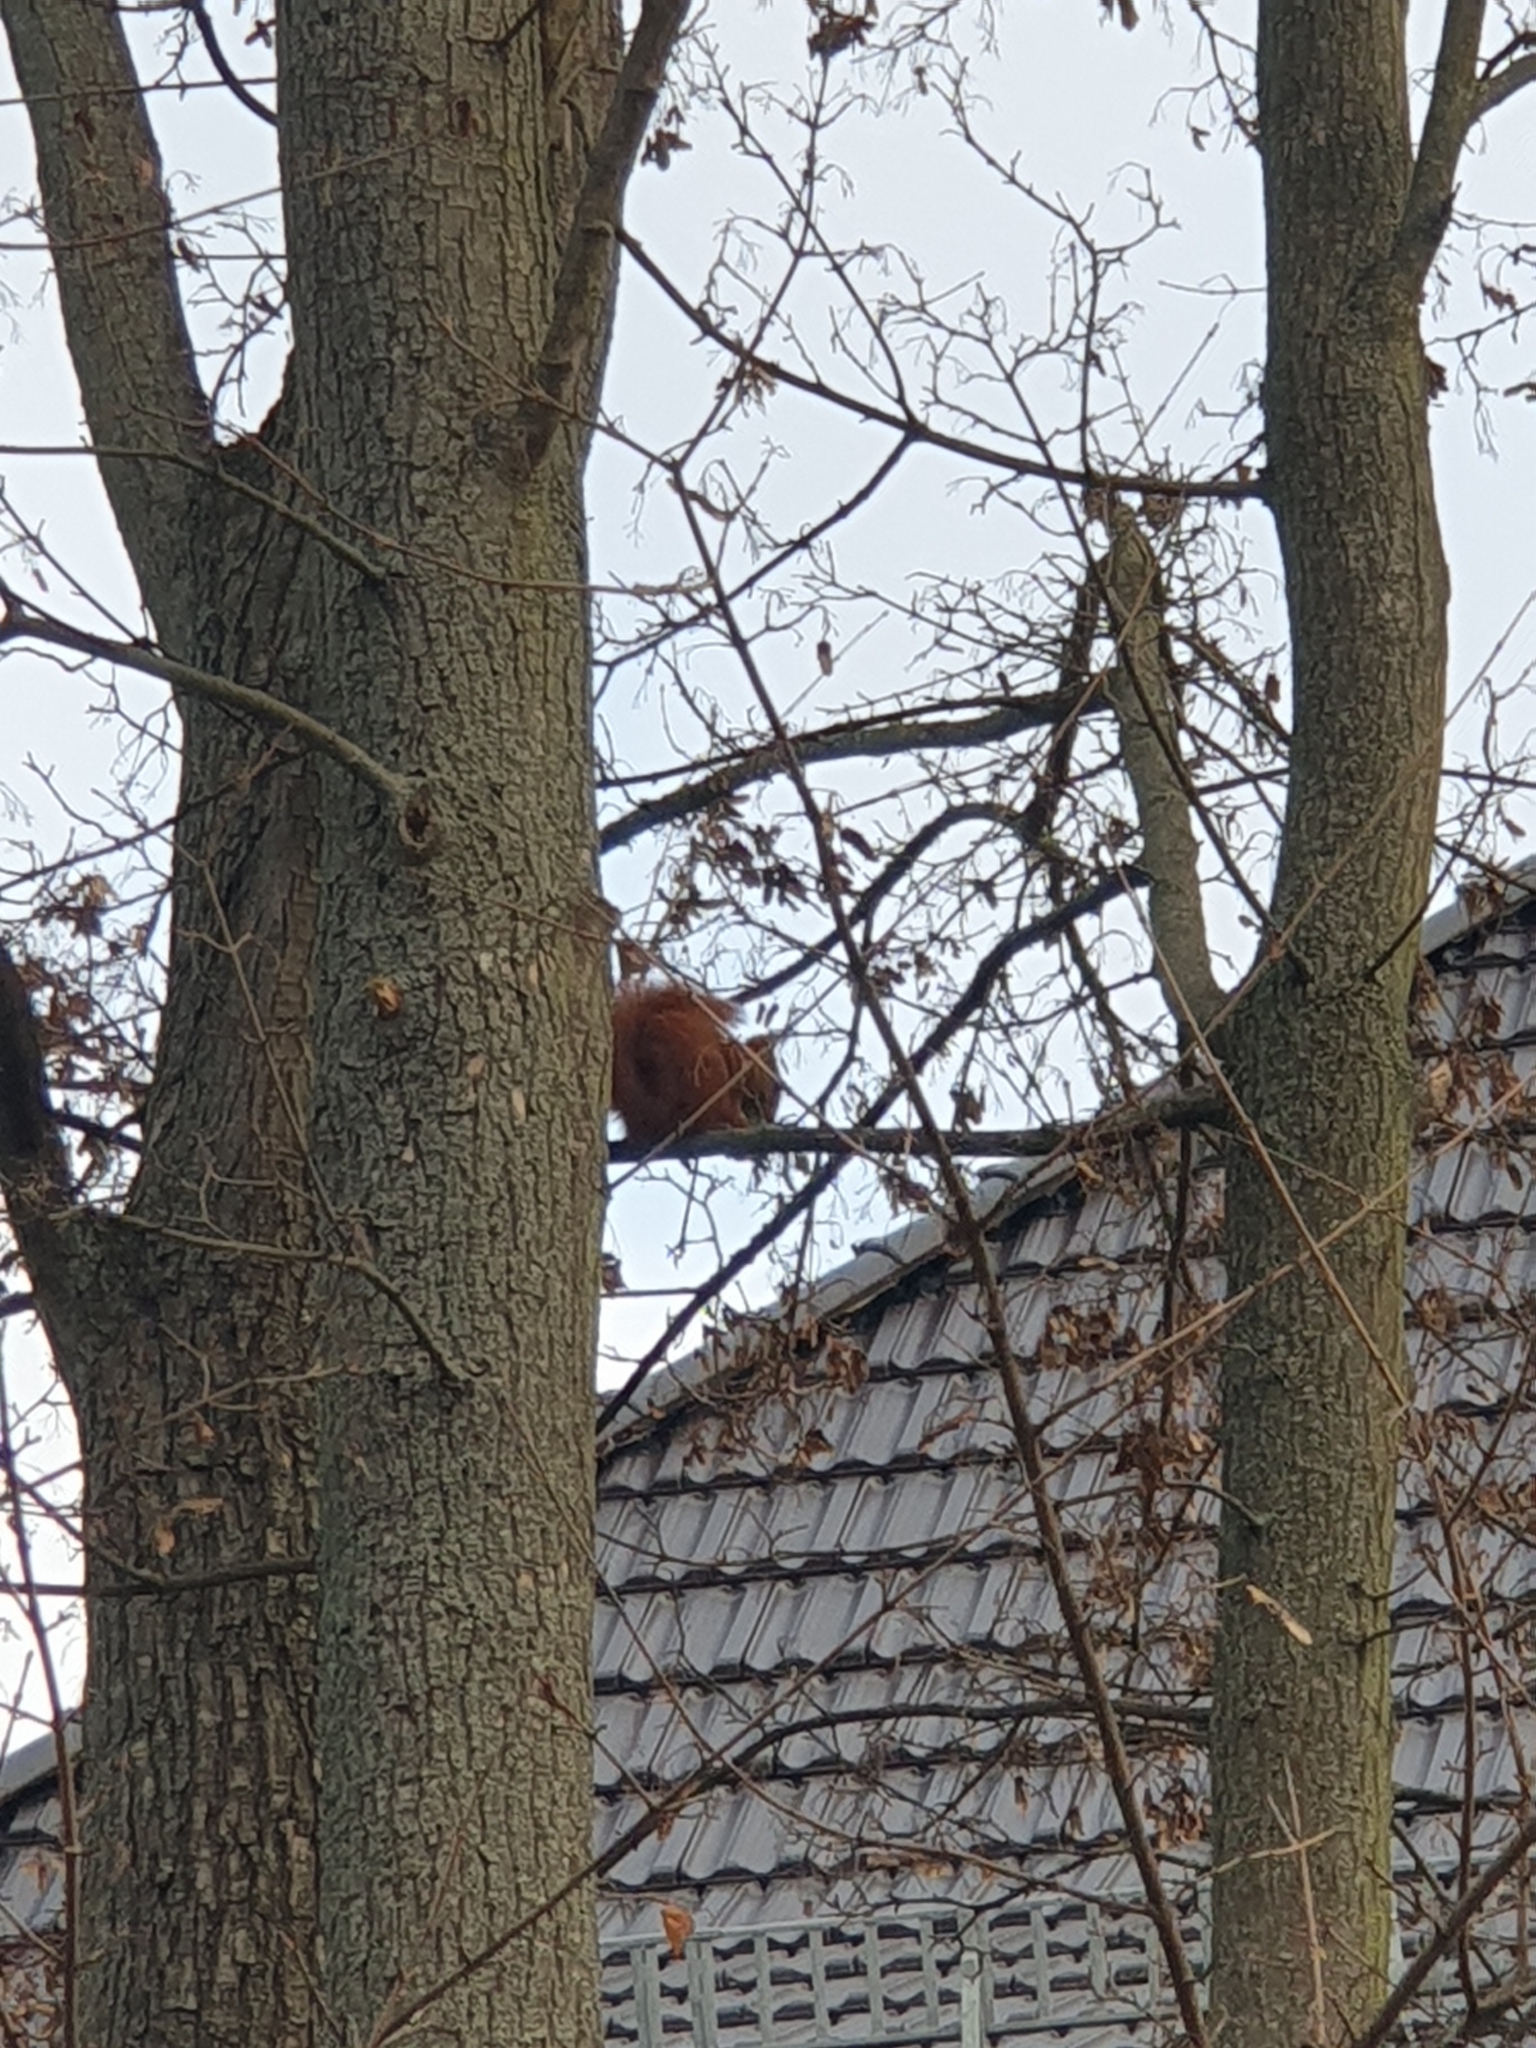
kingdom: Animalia
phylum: Chordata
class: Mammalia
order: Rodentia
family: Sciuridae
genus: Sciurus
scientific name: Sciurus vulgaris
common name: Eurasian red squirrel
